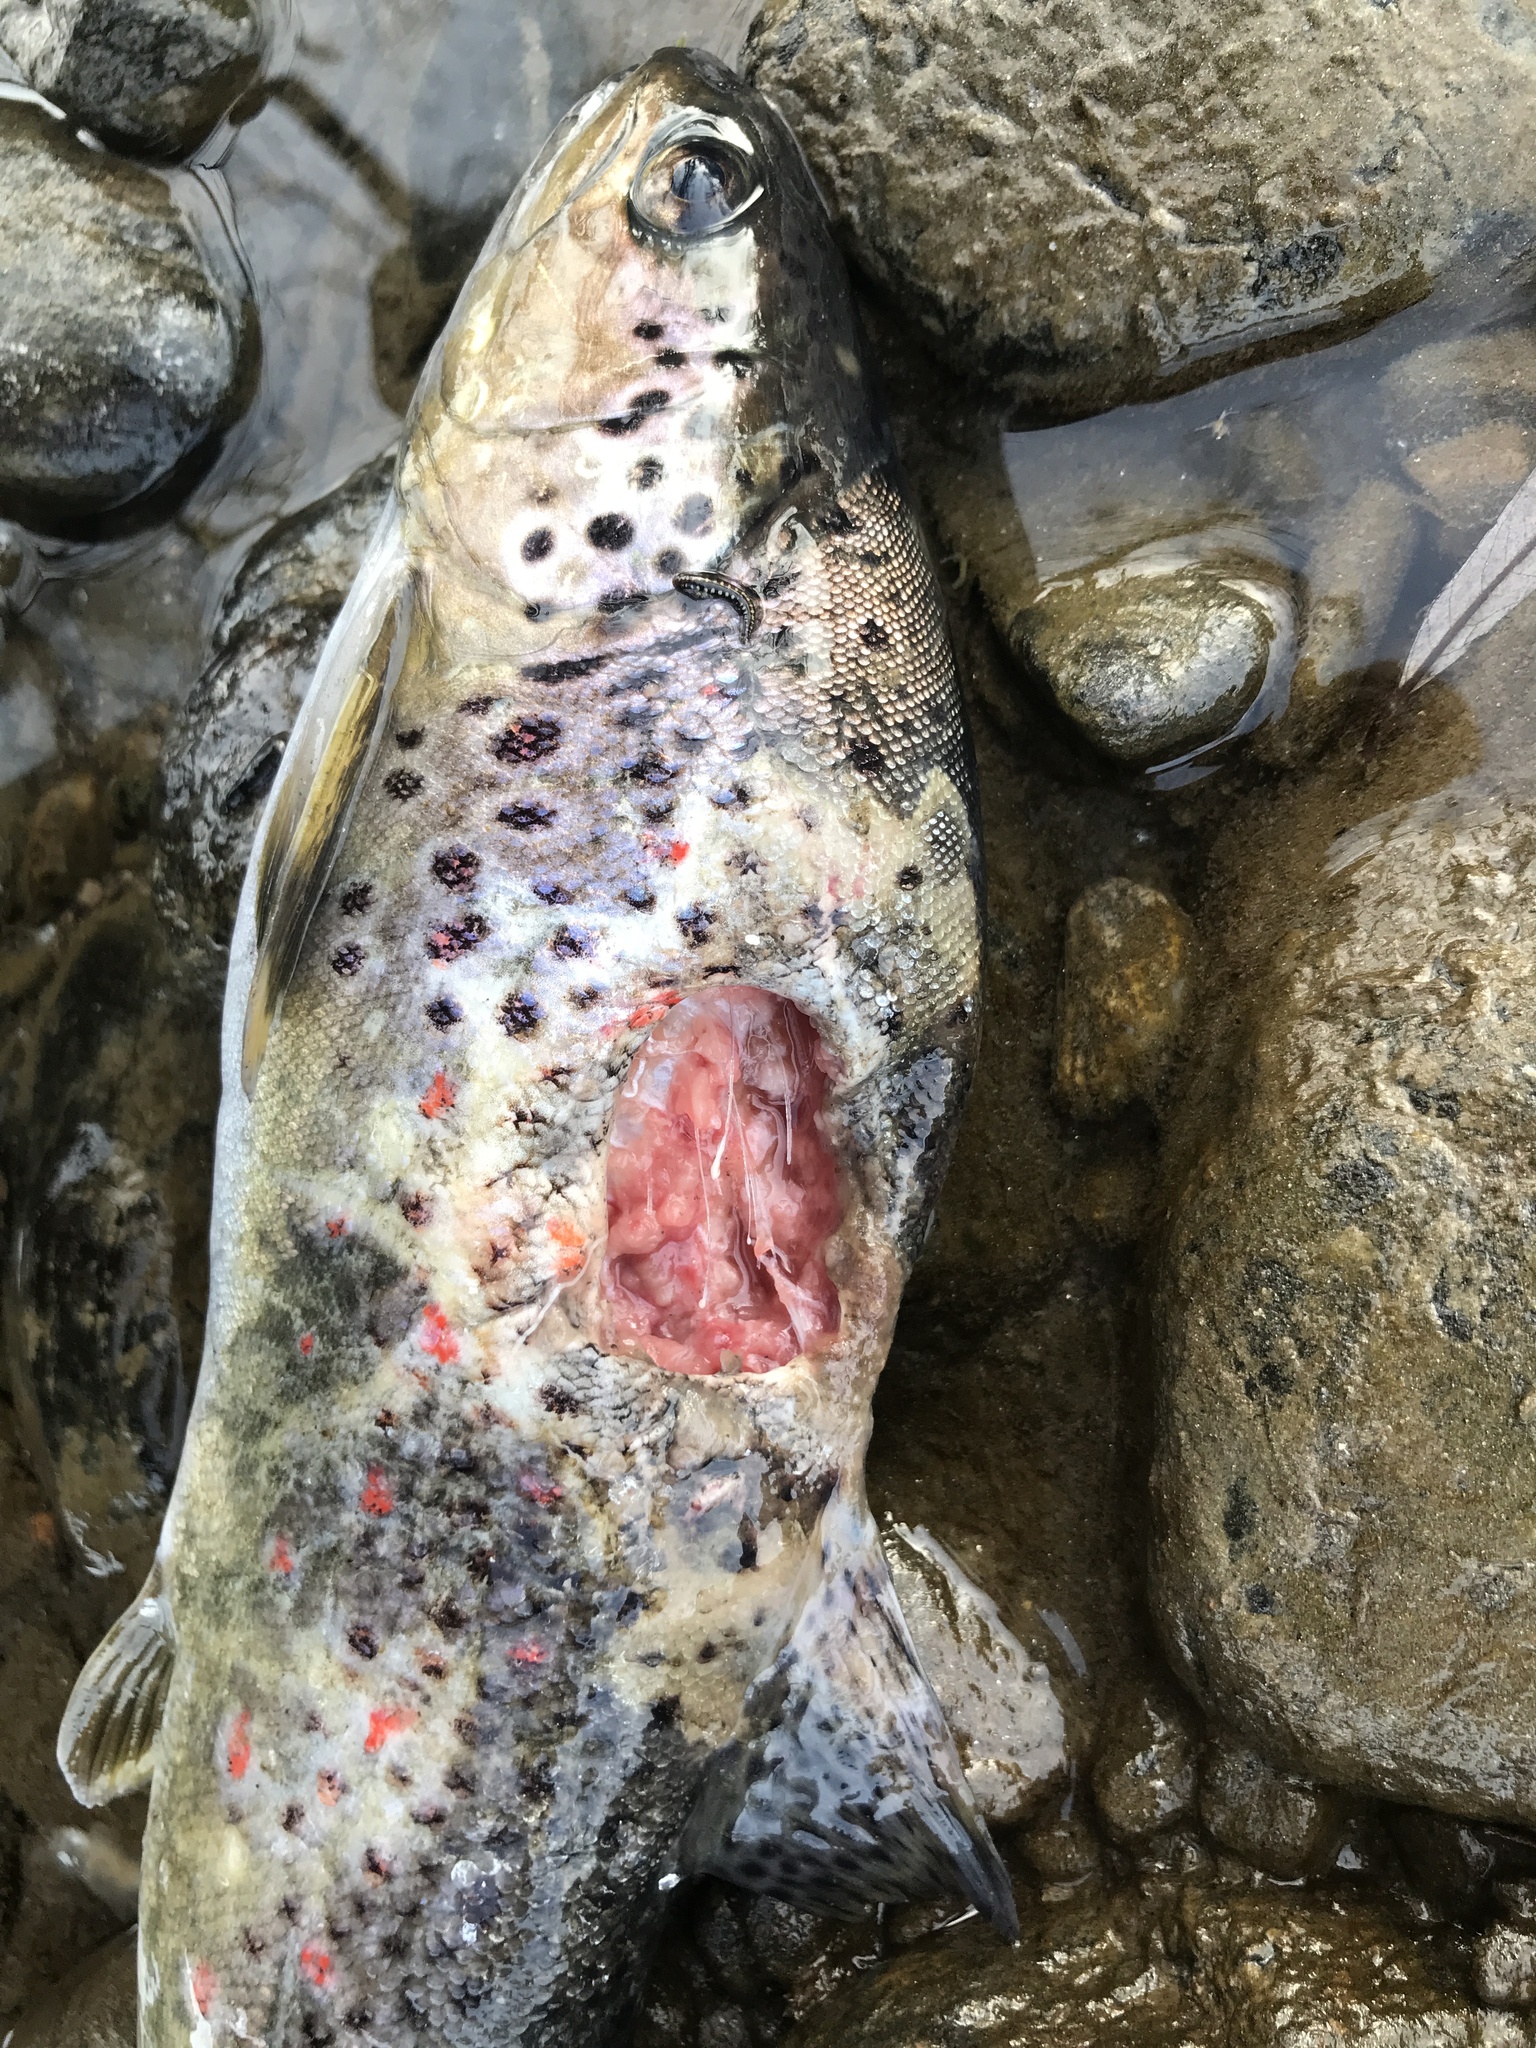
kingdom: Animalia
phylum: Chordata
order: Salmoniformes
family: Salmonidae
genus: Salmo
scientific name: Salmo trutta
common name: Brown trout
